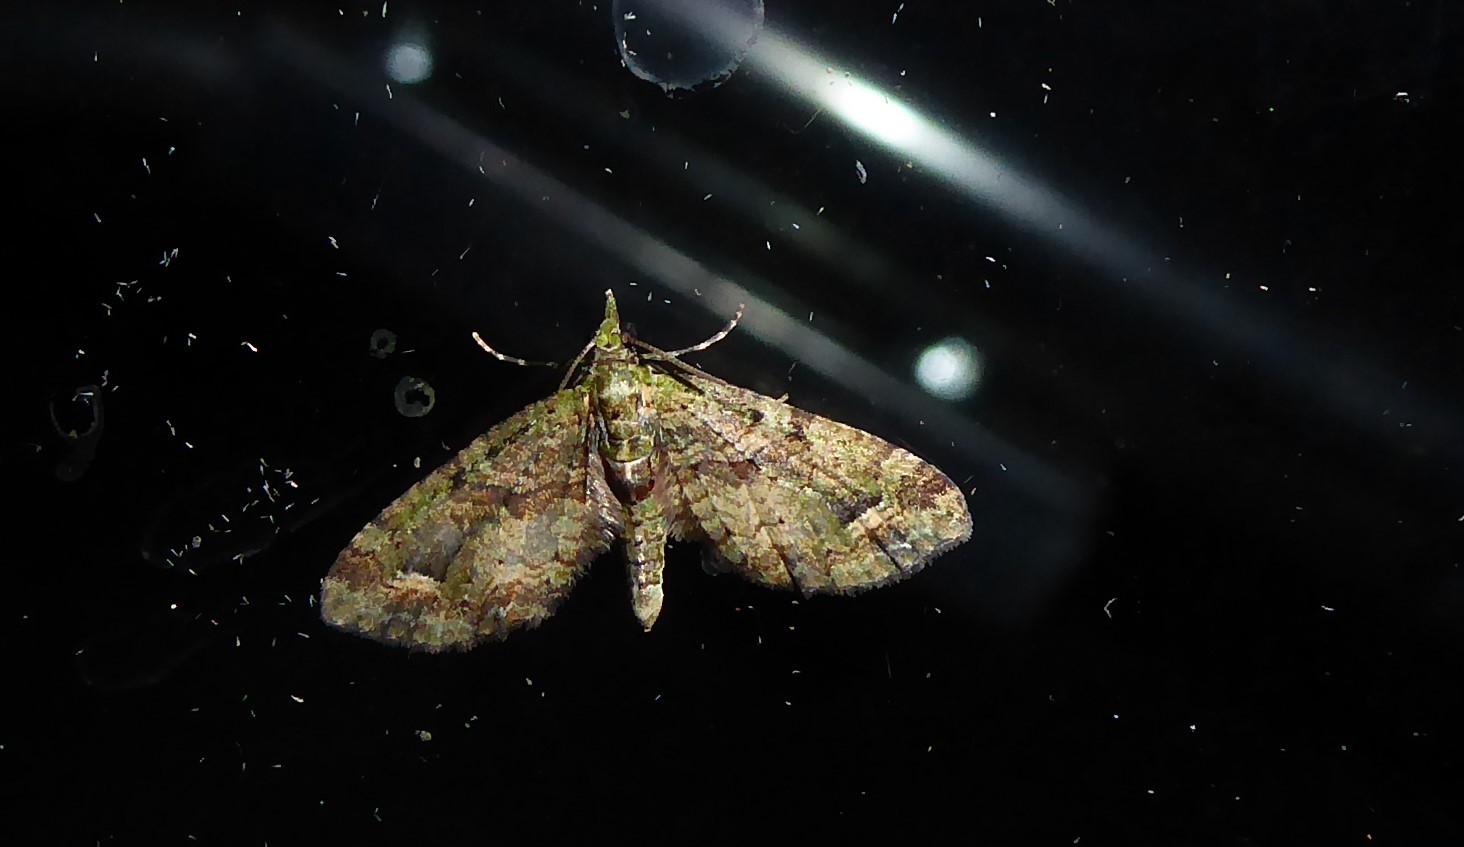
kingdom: Animalia
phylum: Arthropoda
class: Insecta
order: Lepidoptera
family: Geometridae
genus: Idaea
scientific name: Idaea mutanda
